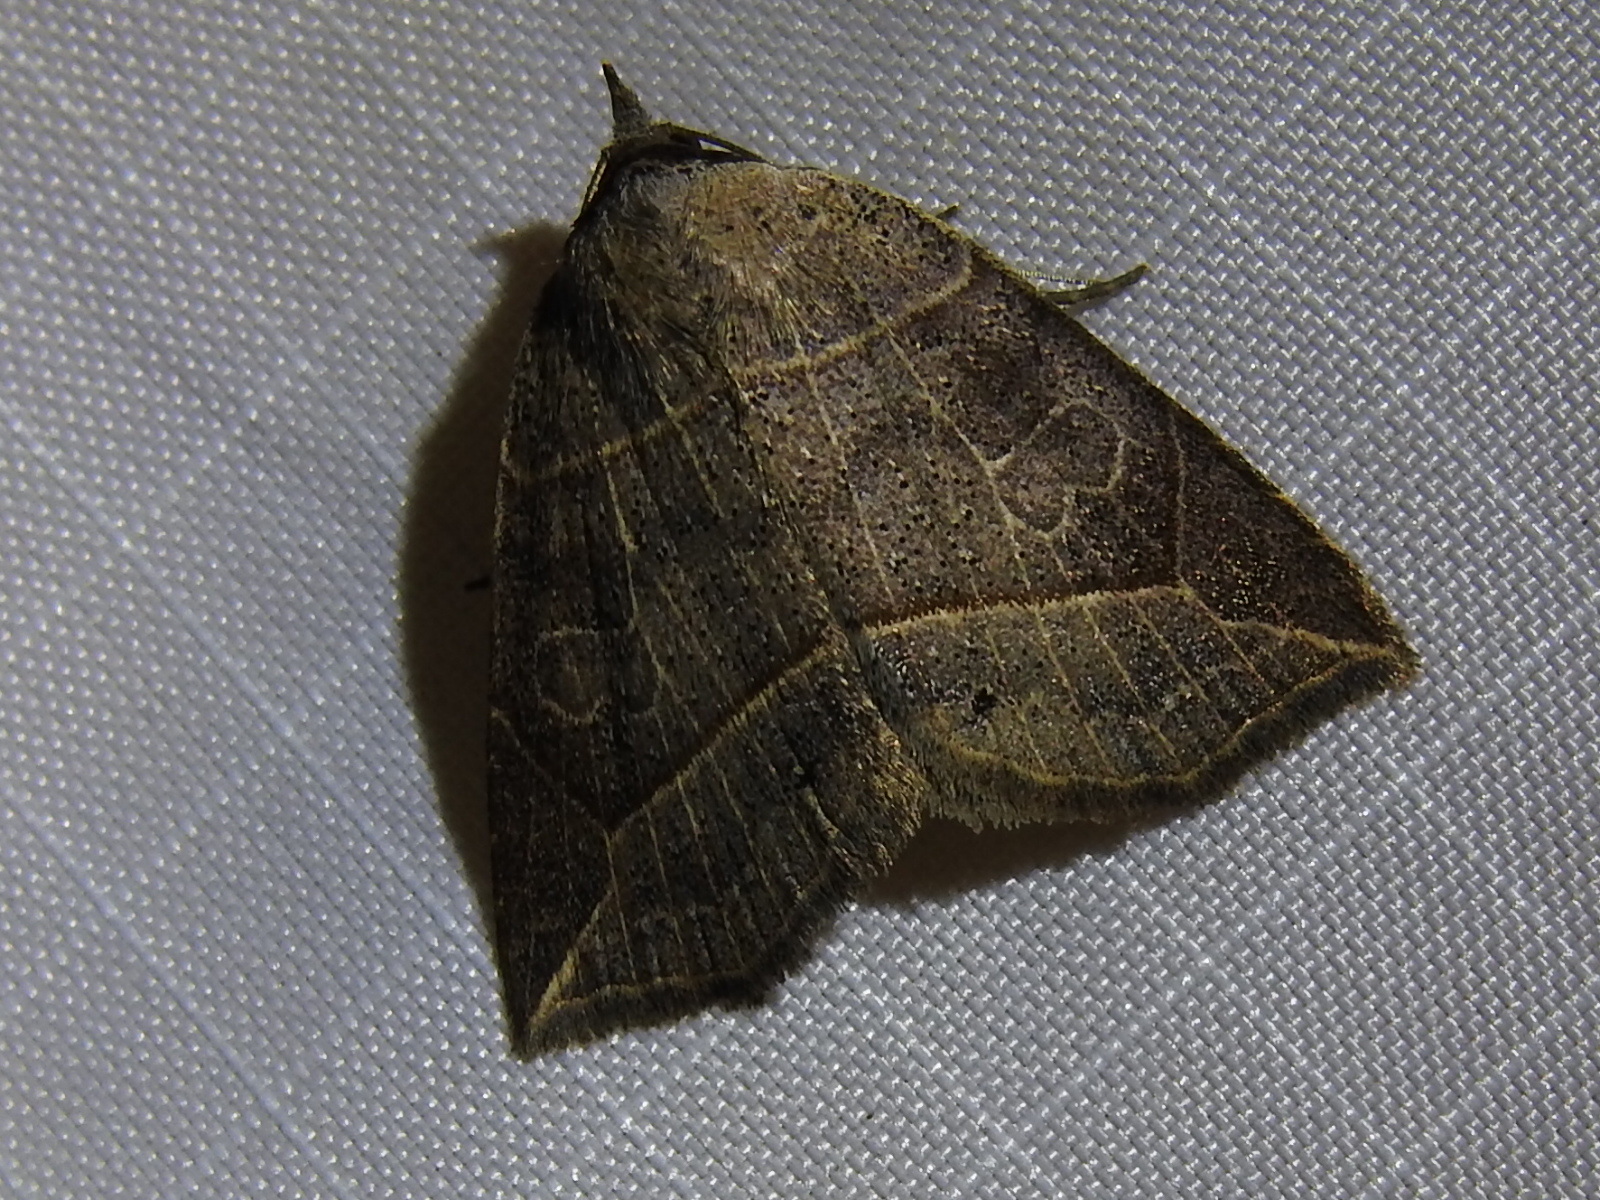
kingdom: Animalia
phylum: Arthropoda
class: Insecta
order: Lepidoptera
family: Erebidae
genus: Isogona
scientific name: Isogona tenuis
